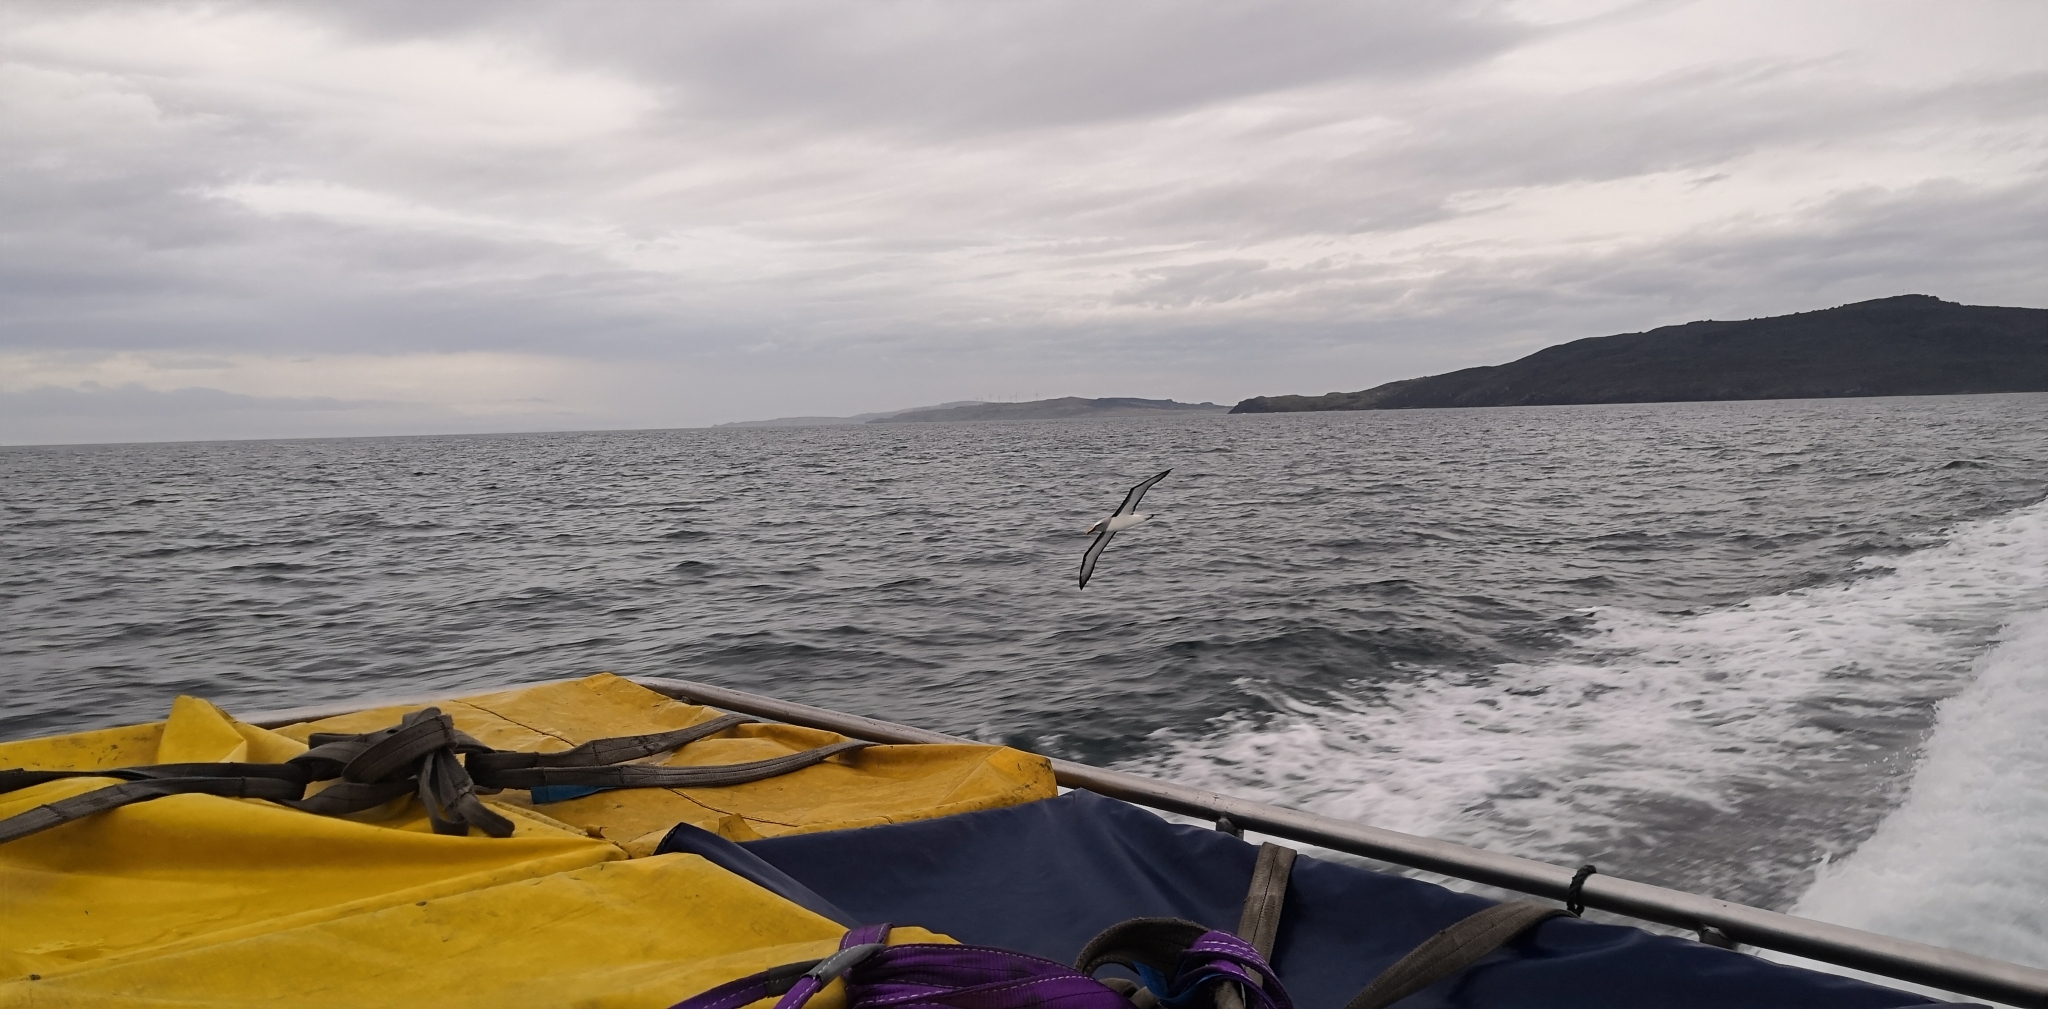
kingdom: Animalia
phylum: Chordata
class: Aves
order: Procellariiformes
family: Diomedeidae
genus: Thalassarche
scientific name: Thalassarche bulleri
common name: Buller's albatross
